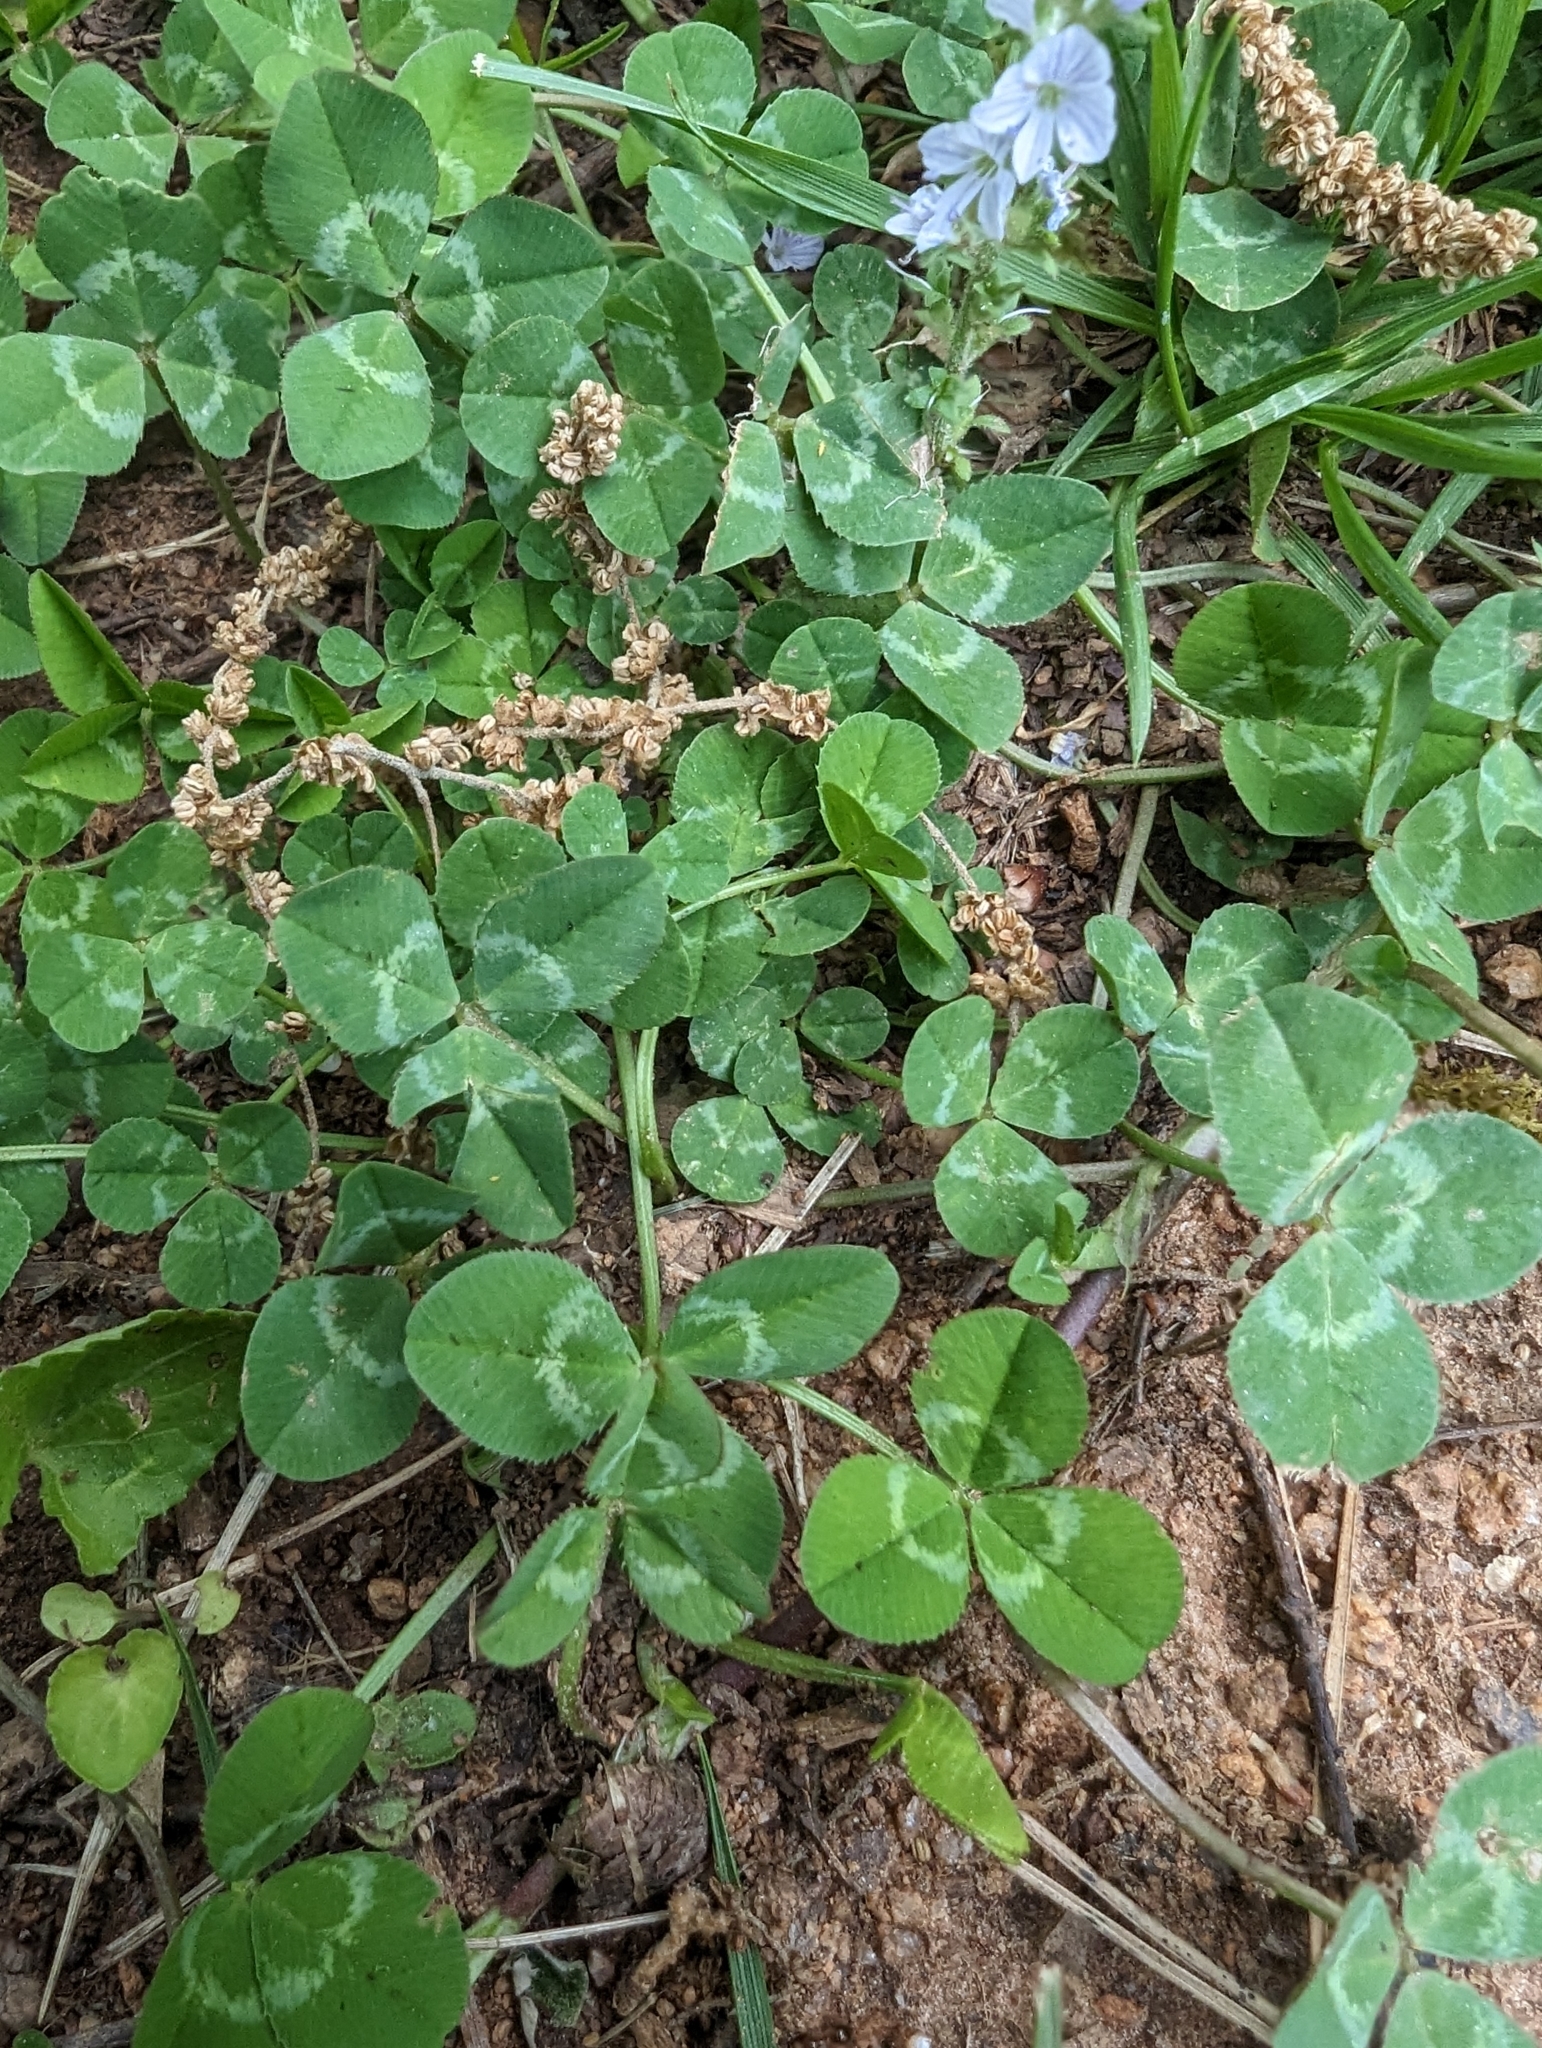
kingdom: Plantae
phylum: Tracheophyta
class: Magnoliopsida
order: Fabales
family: Fabaceae
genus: Trifolium
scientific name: Trifolium repens
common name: White clover
